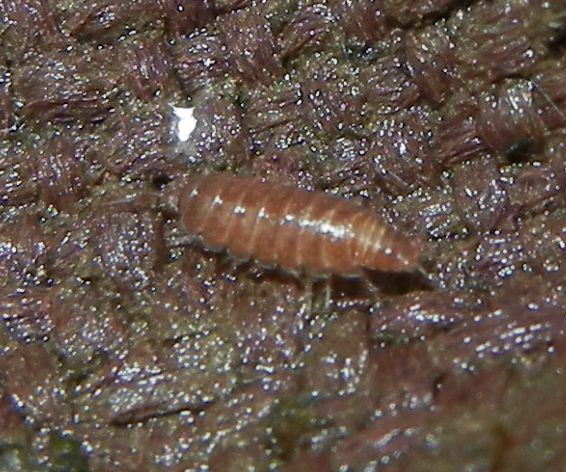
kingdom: Animalia
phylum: Arthropoda
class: Malacostraca
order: Isopoda
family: Trichoniscidae
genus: Trichoniscus
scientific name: Trichoniscus
